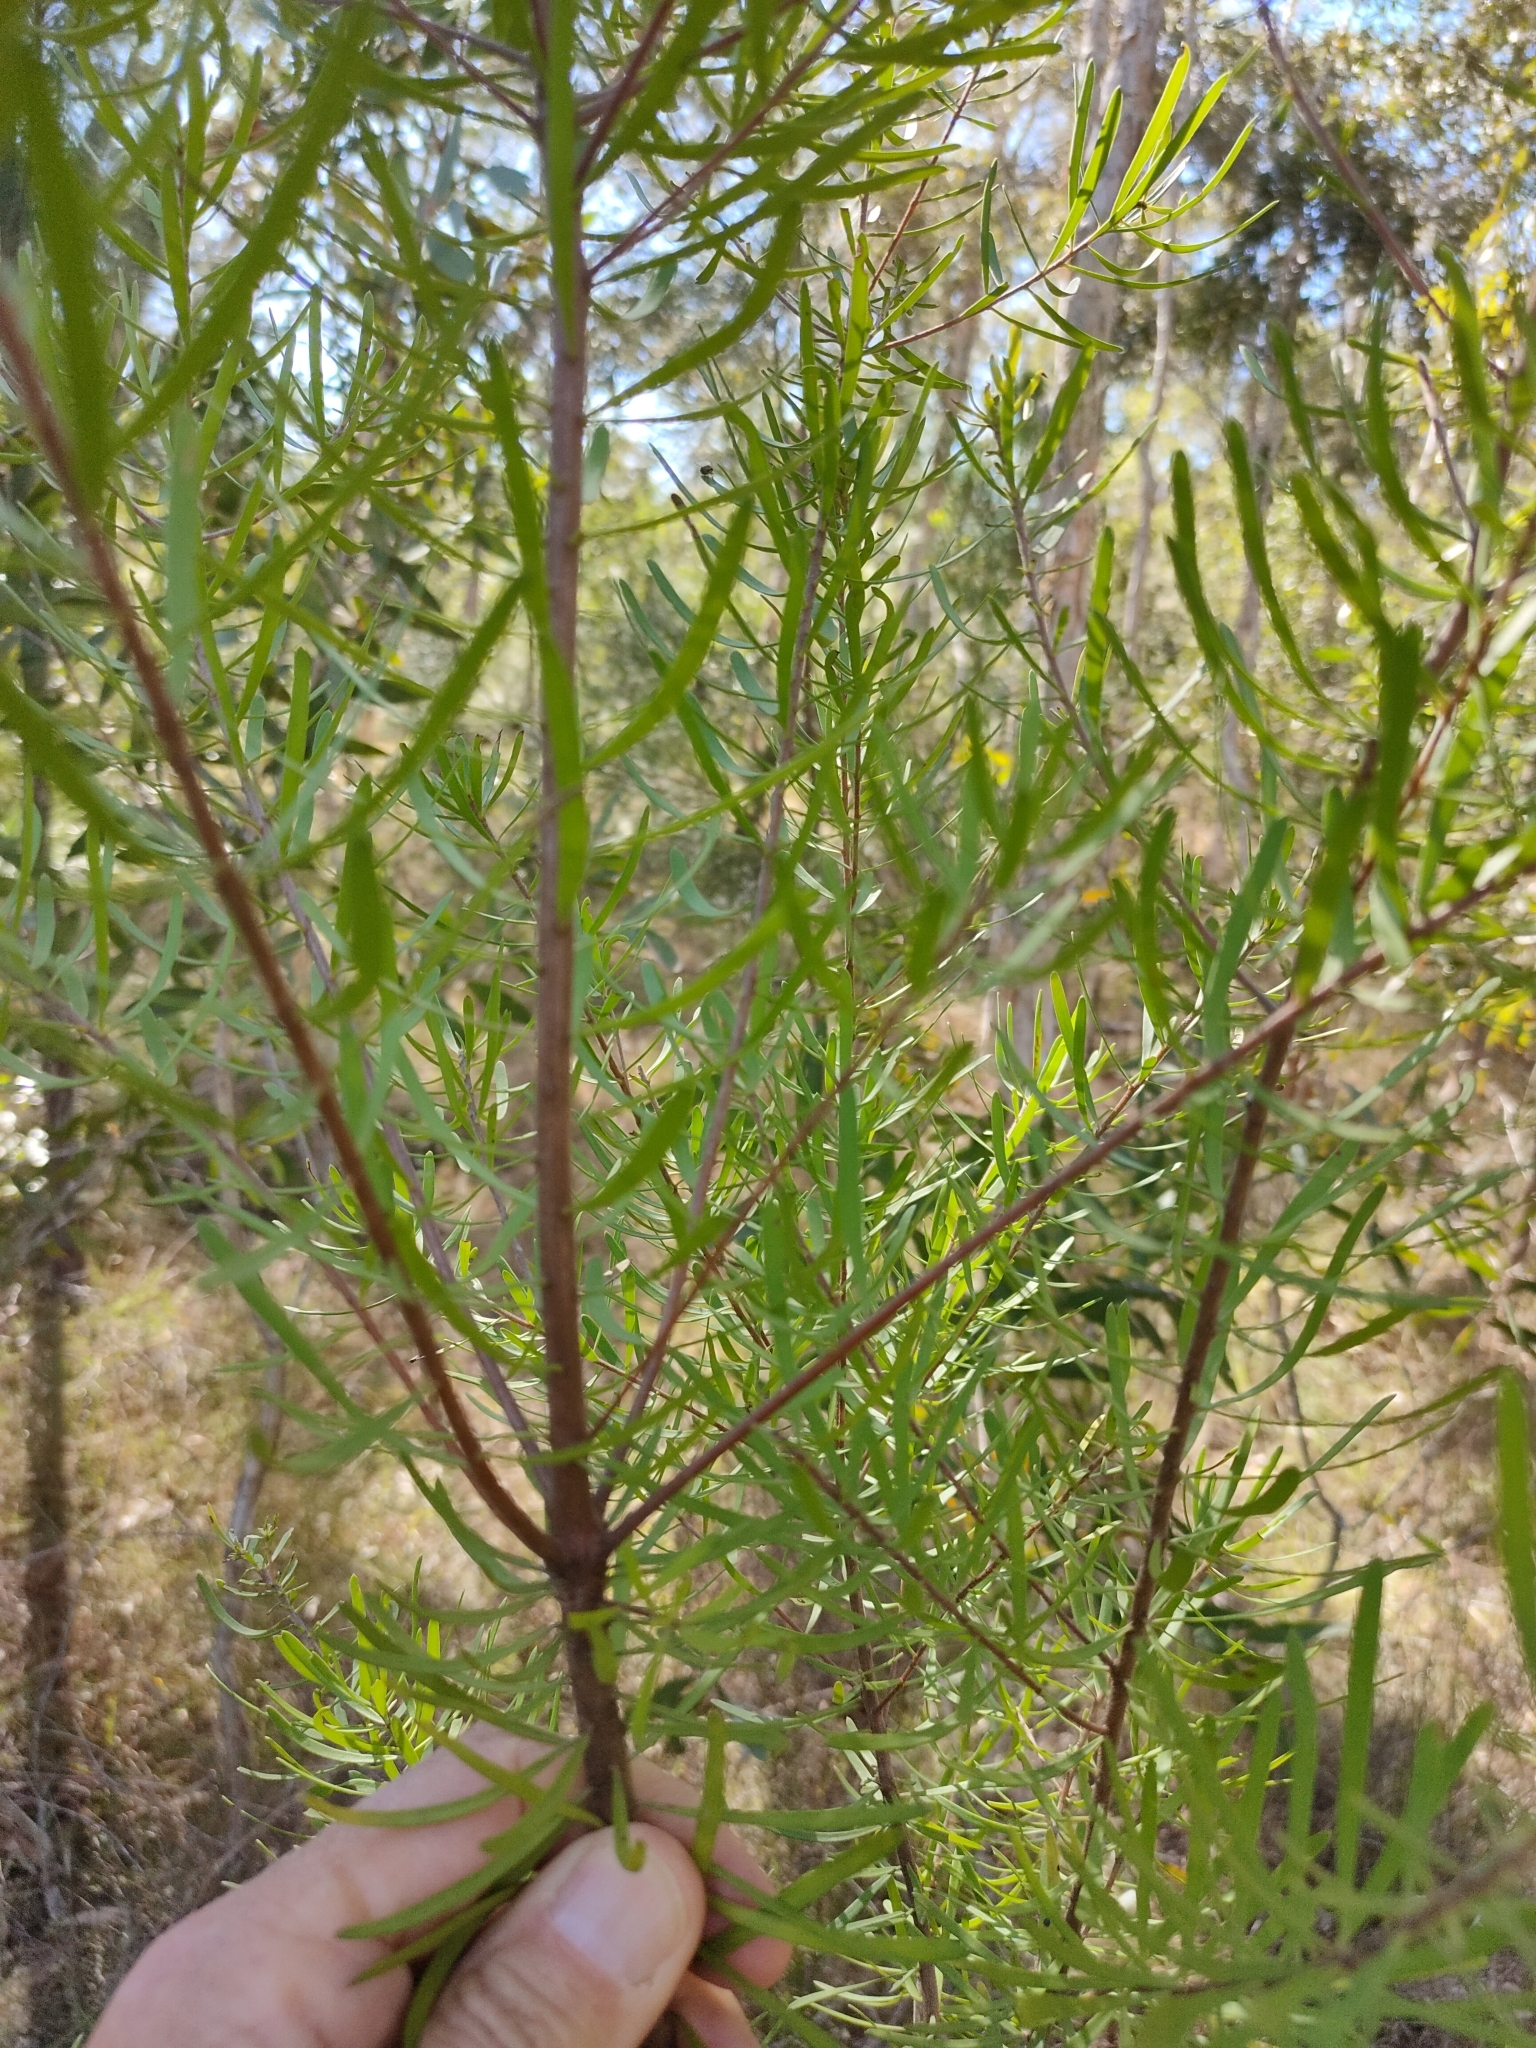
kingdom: Plantae
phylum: Tracheophyta
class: Magnoliopsida
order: Proteales
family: Proteaceae
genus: Persoonia
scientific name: Persoonia virgata
